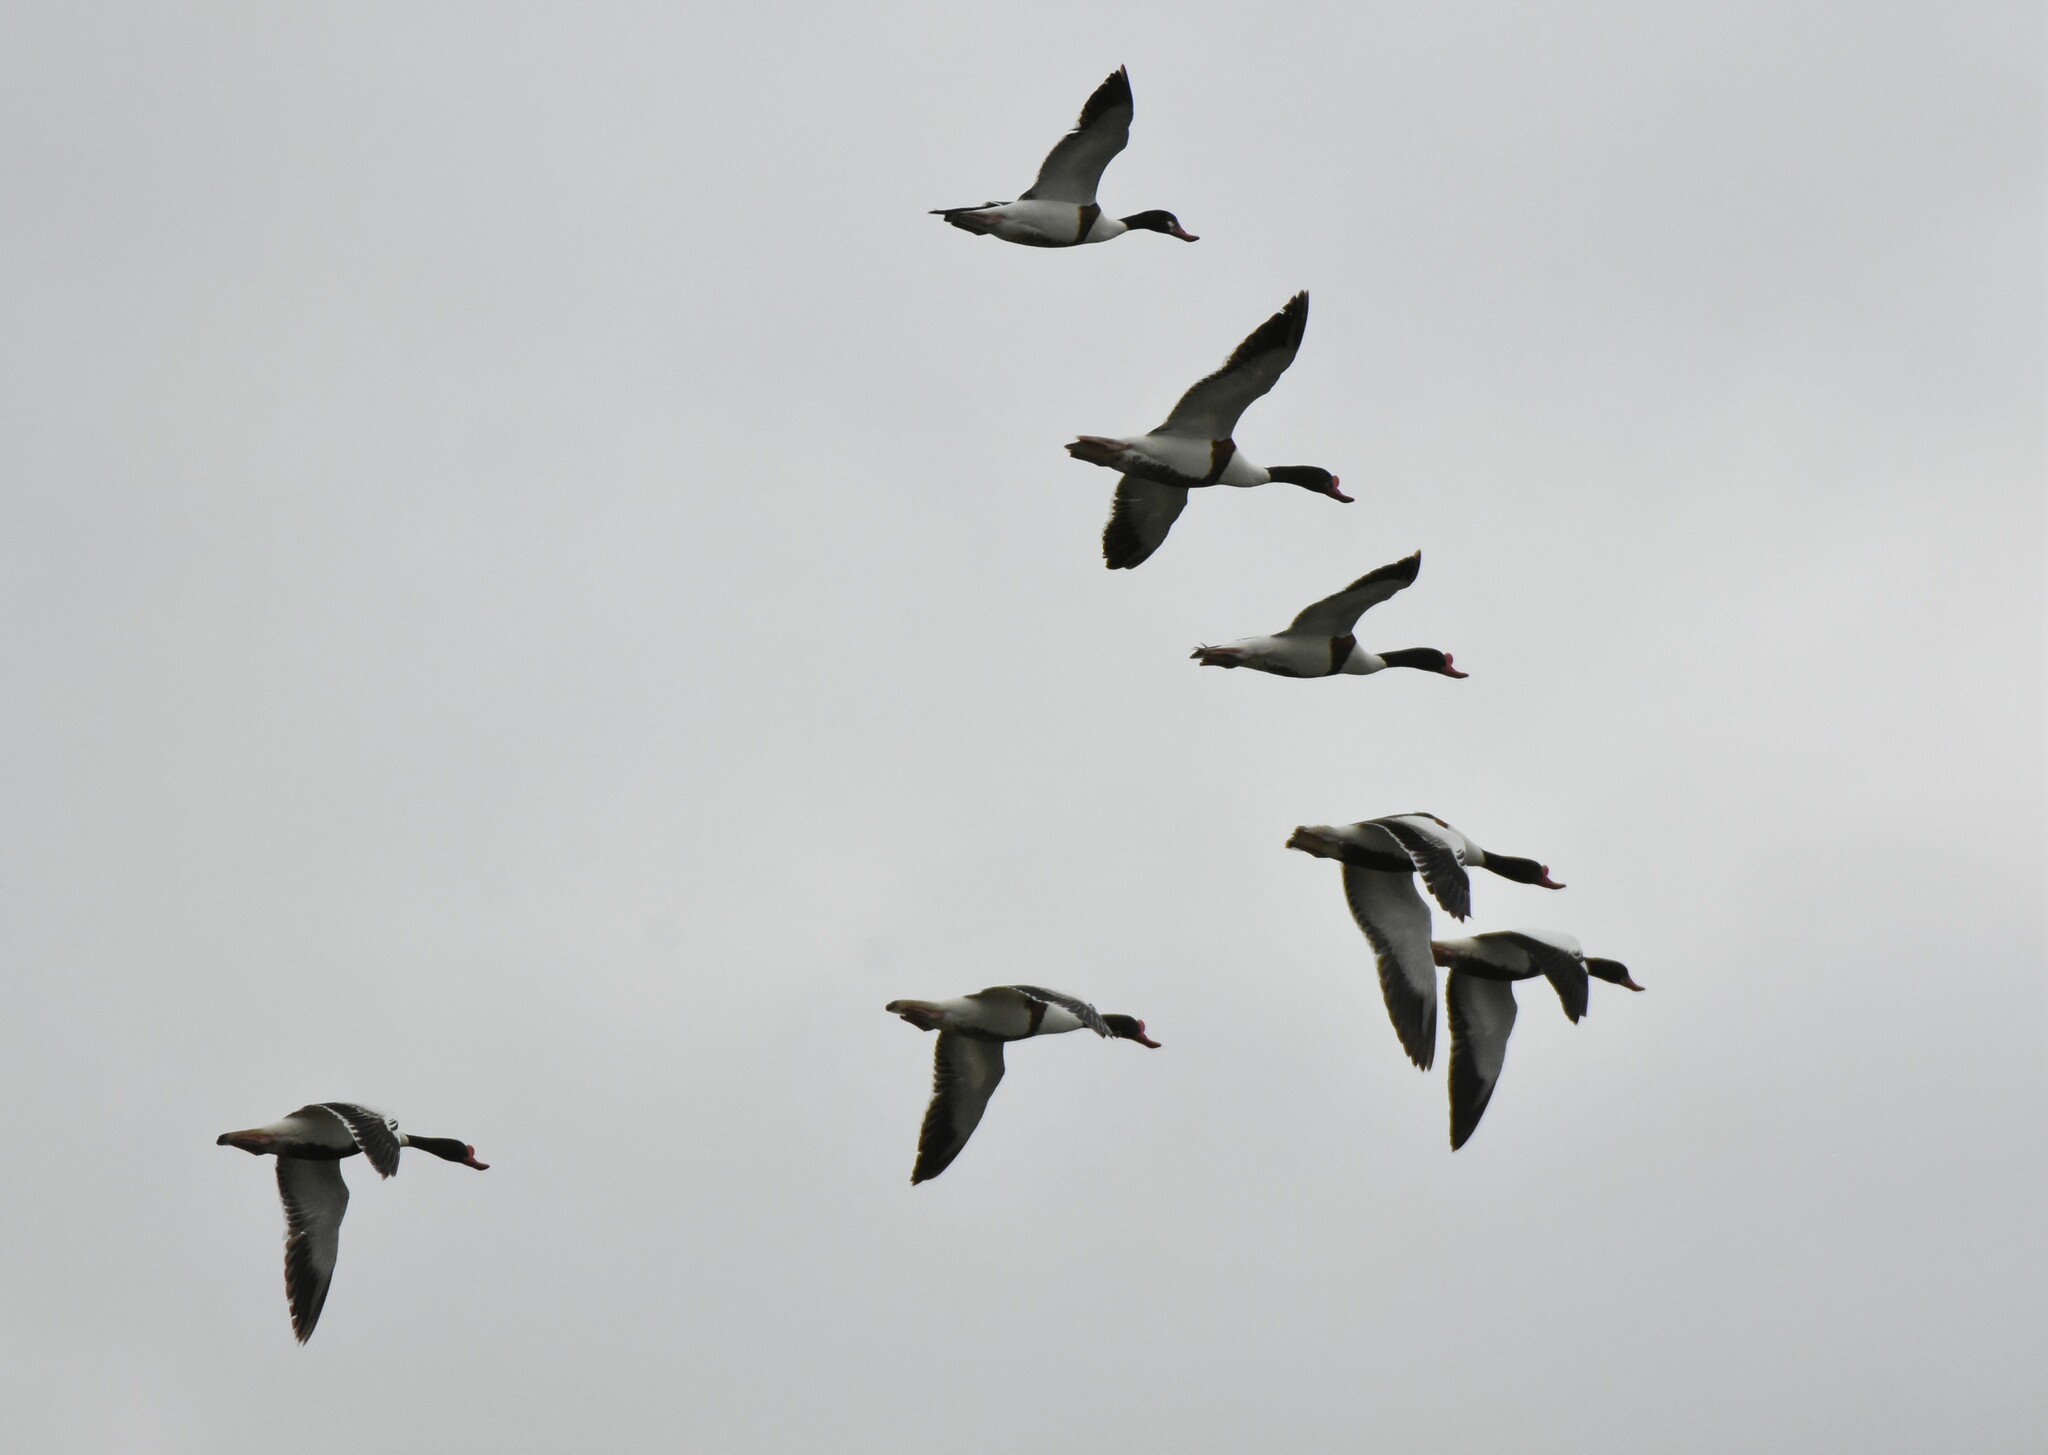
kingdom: Animalia
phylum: Chordata
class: Aves
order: Anseriformes
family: Anatidae
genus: Tadorna
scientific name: Tadorna tadorna
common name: Common shelduck
